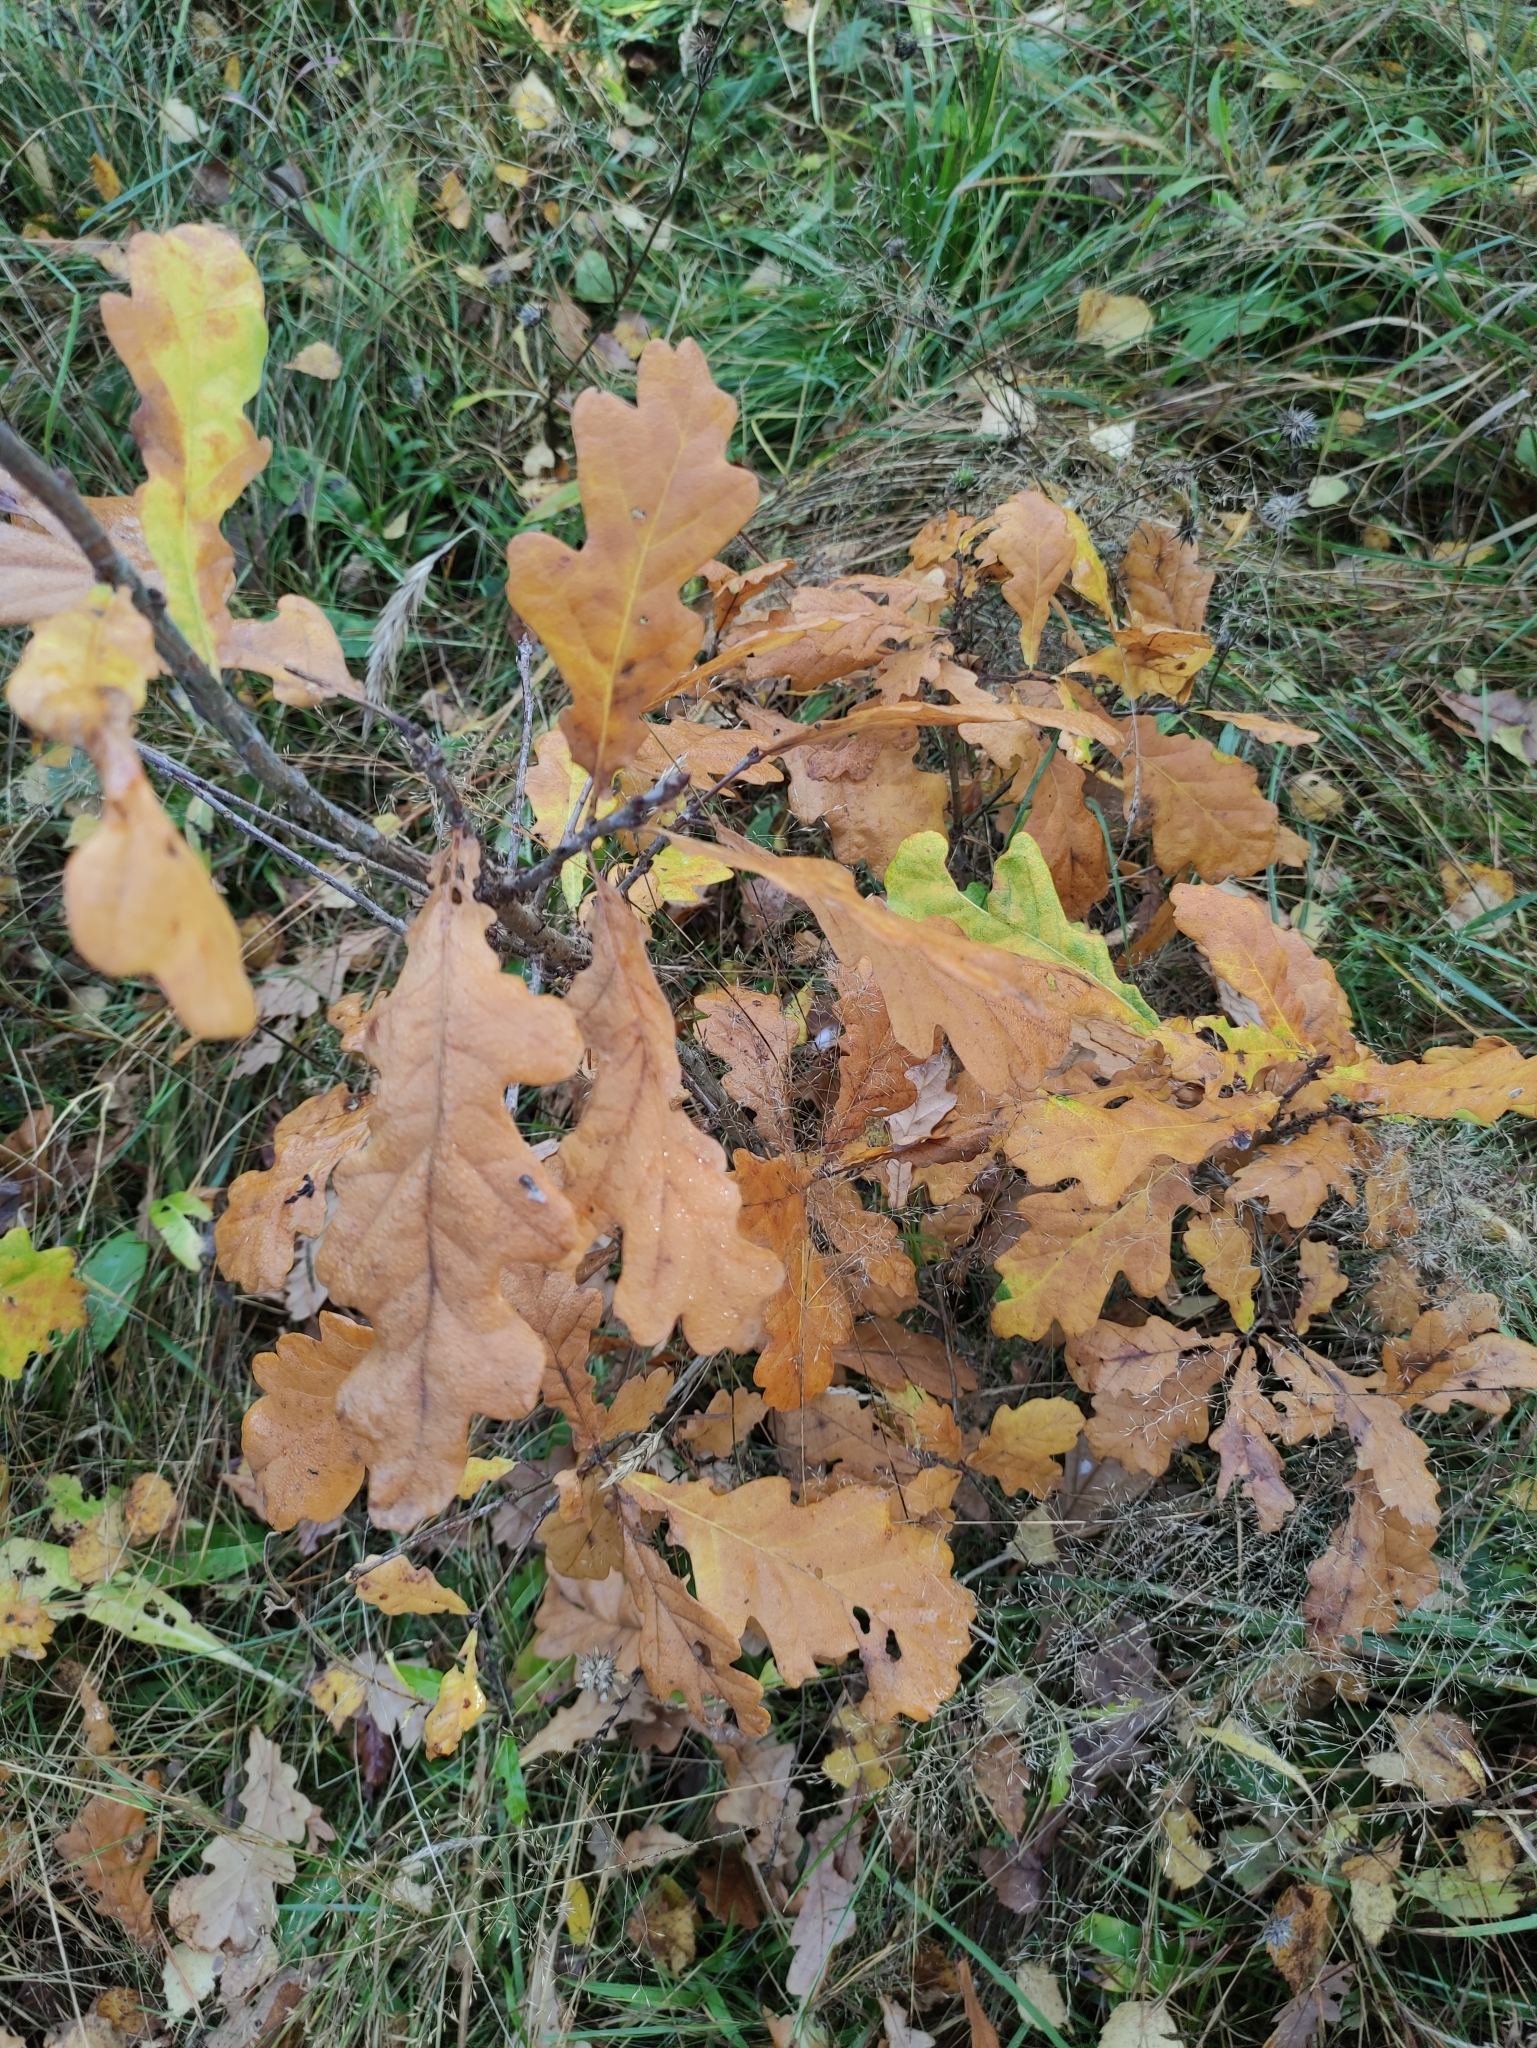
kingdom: Plantae
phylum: Tracheophyta
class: Magnoliopsida
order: Fagales
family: Fagaceae
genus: Quercus
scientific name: Quercus robur
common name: Pedunculate oak
